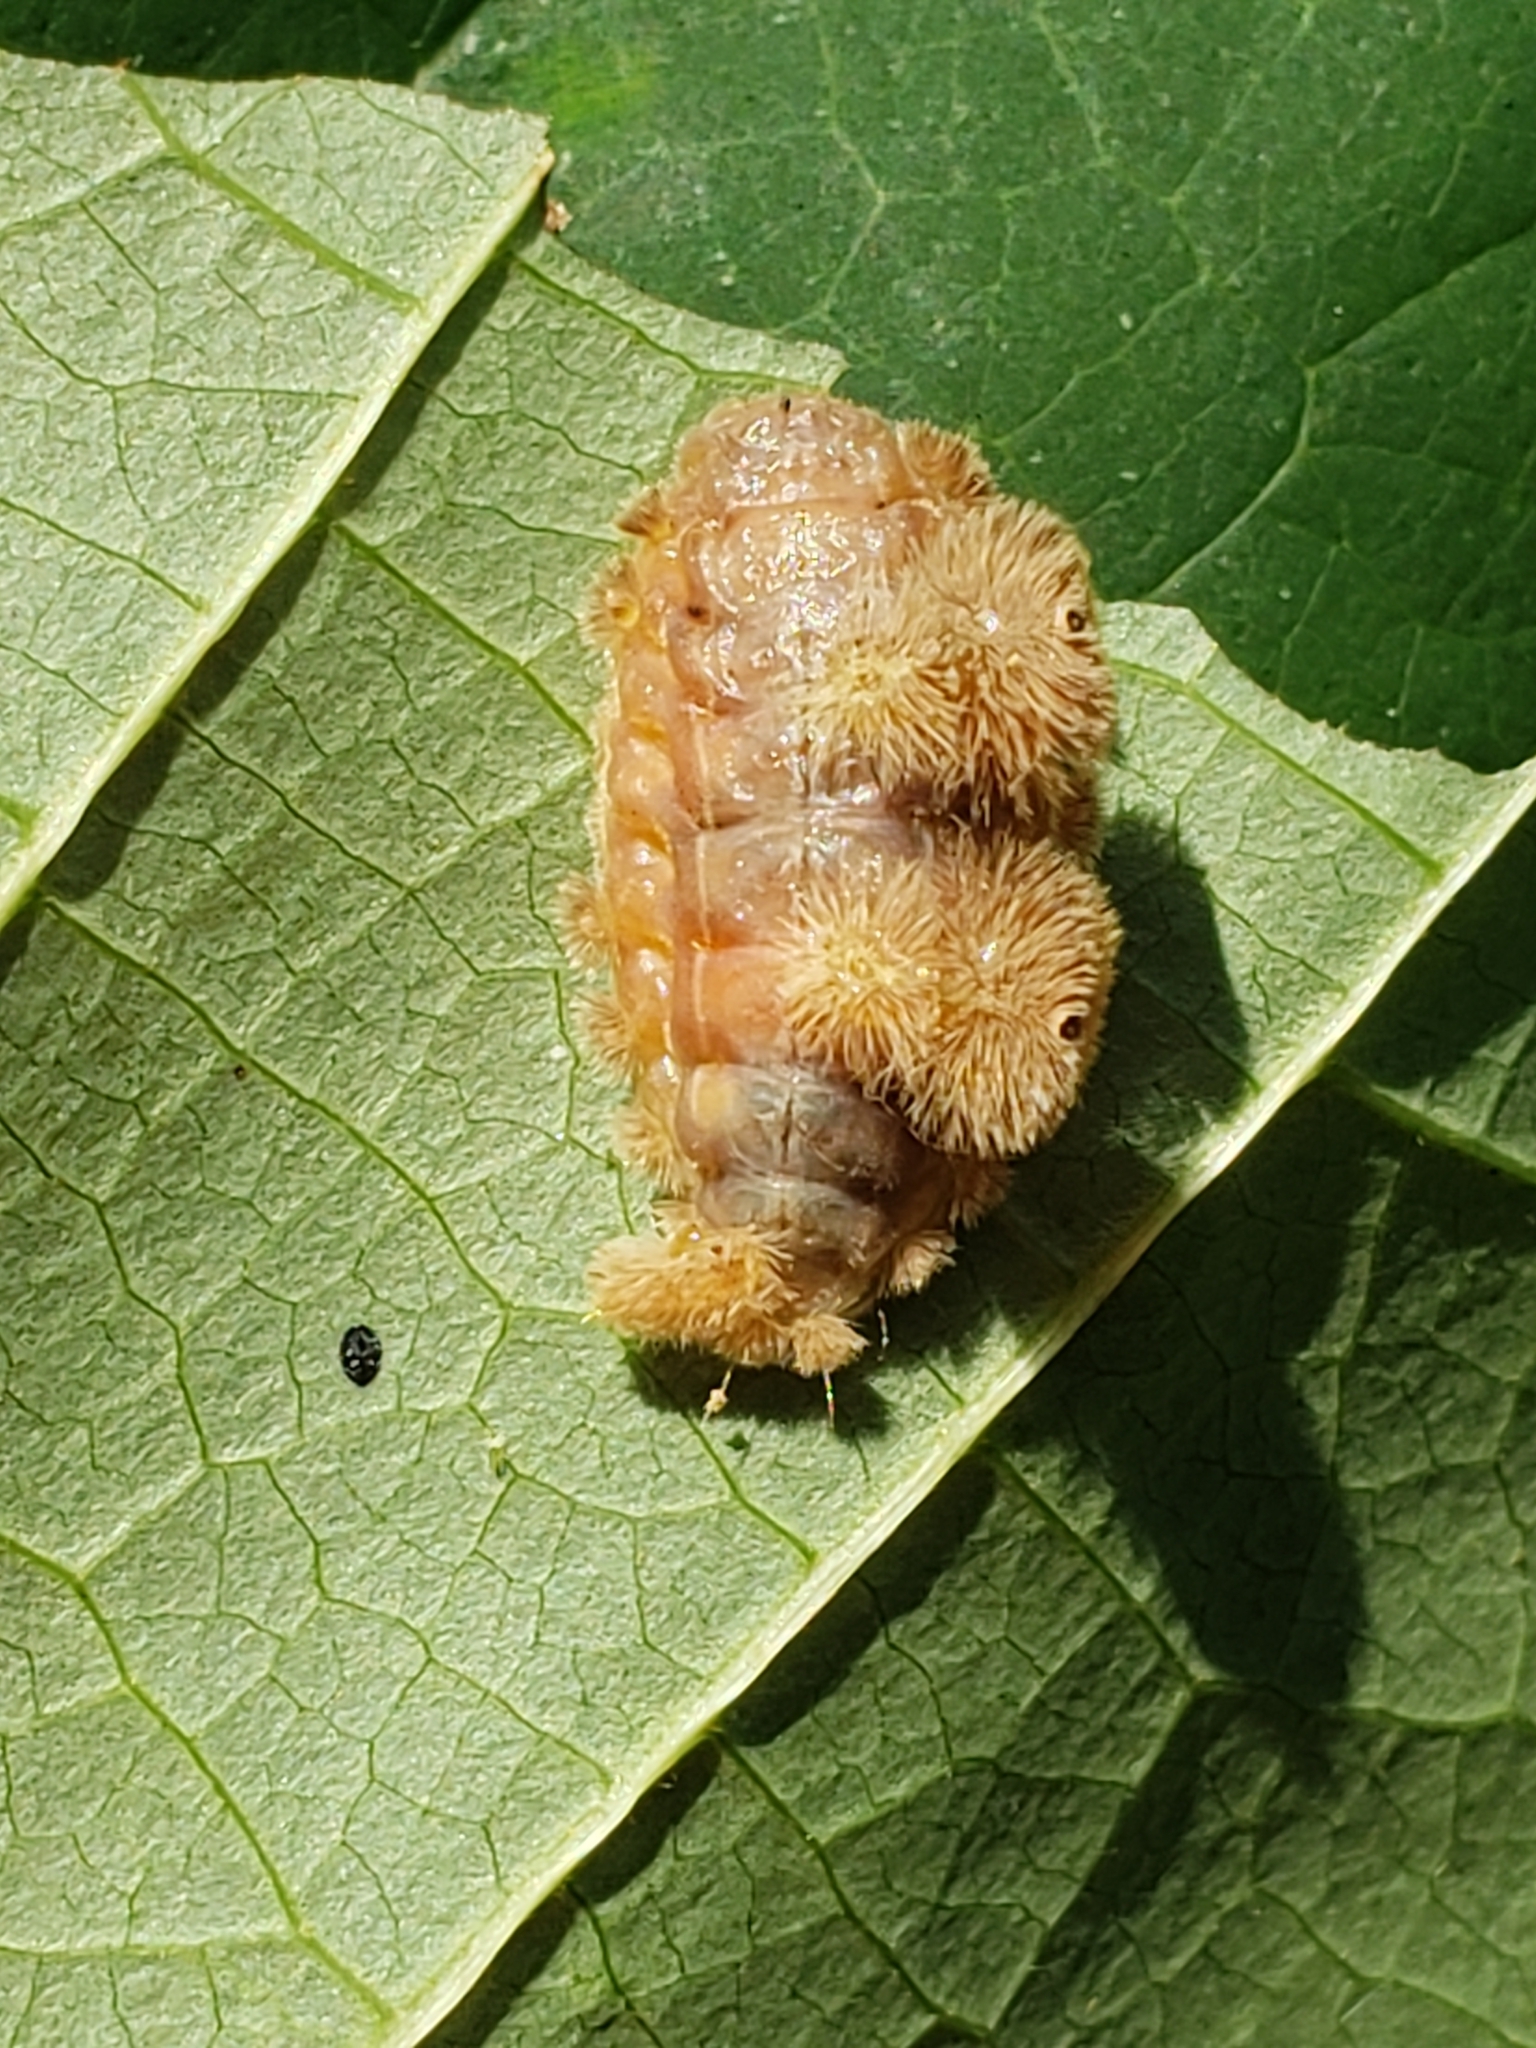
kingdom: Animalia
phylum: Arthropoda
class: Insecta
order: Lepidoptera
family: Limacodidae
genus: Phobetron
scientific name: Phobetron pithecium
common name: Hag moth
